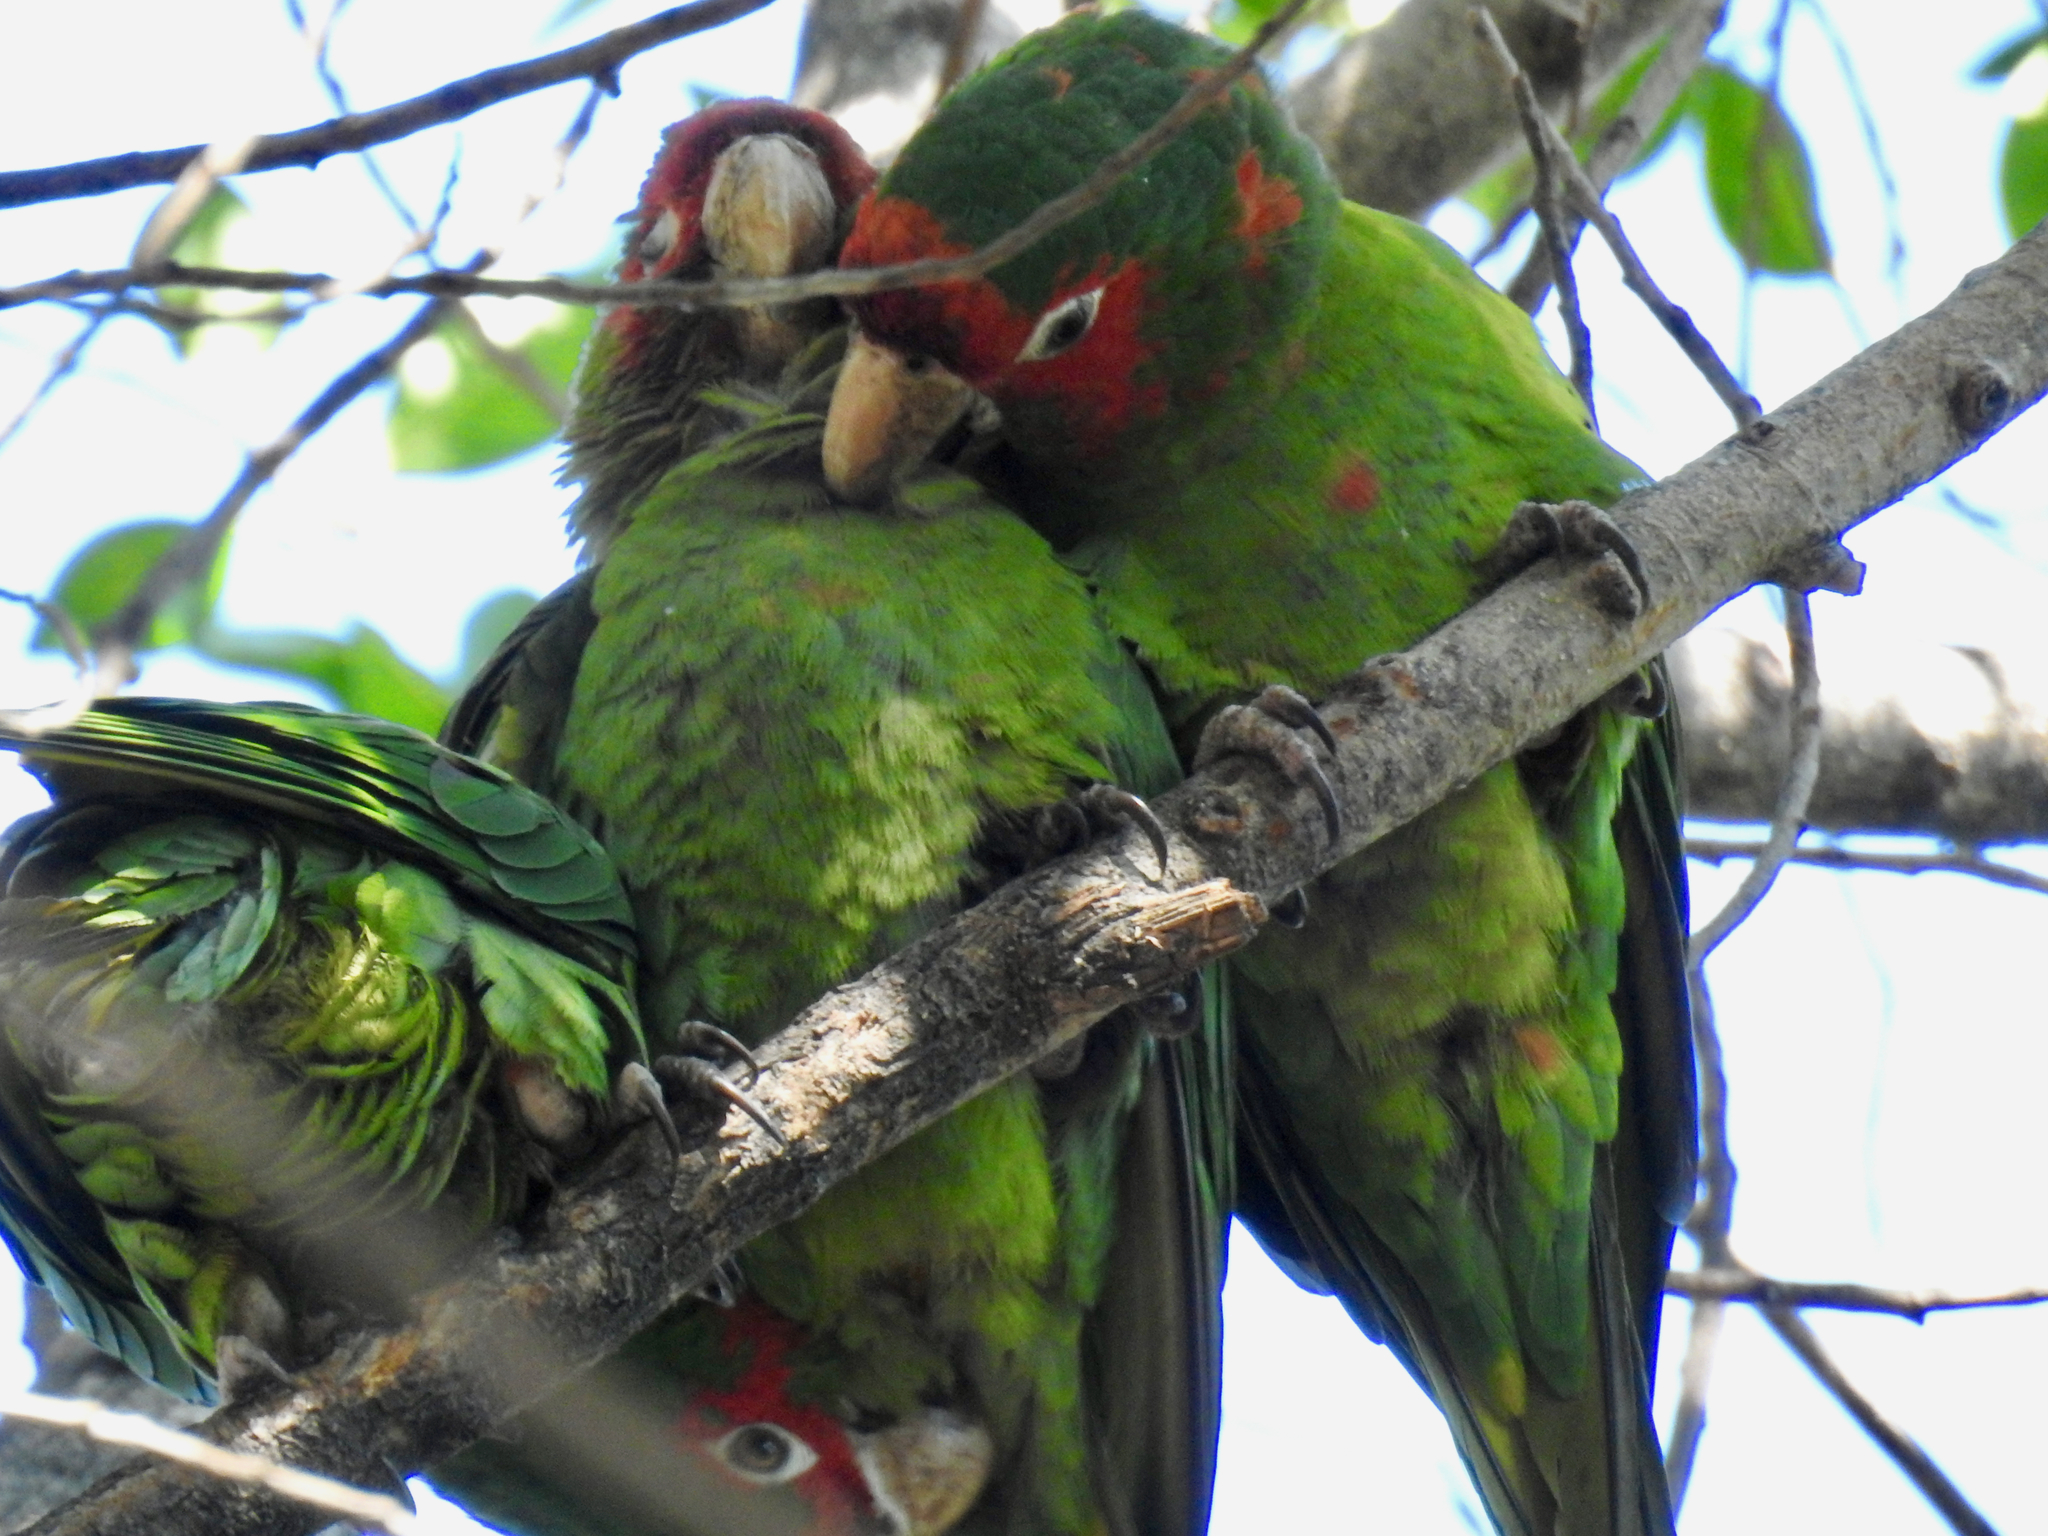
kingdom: Animalia
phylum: Chordata
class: Aves
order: Psittaciformes
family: Psittacidae
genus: Aratinga
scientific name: Aratinga mitrata
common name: Mitred parakeet
